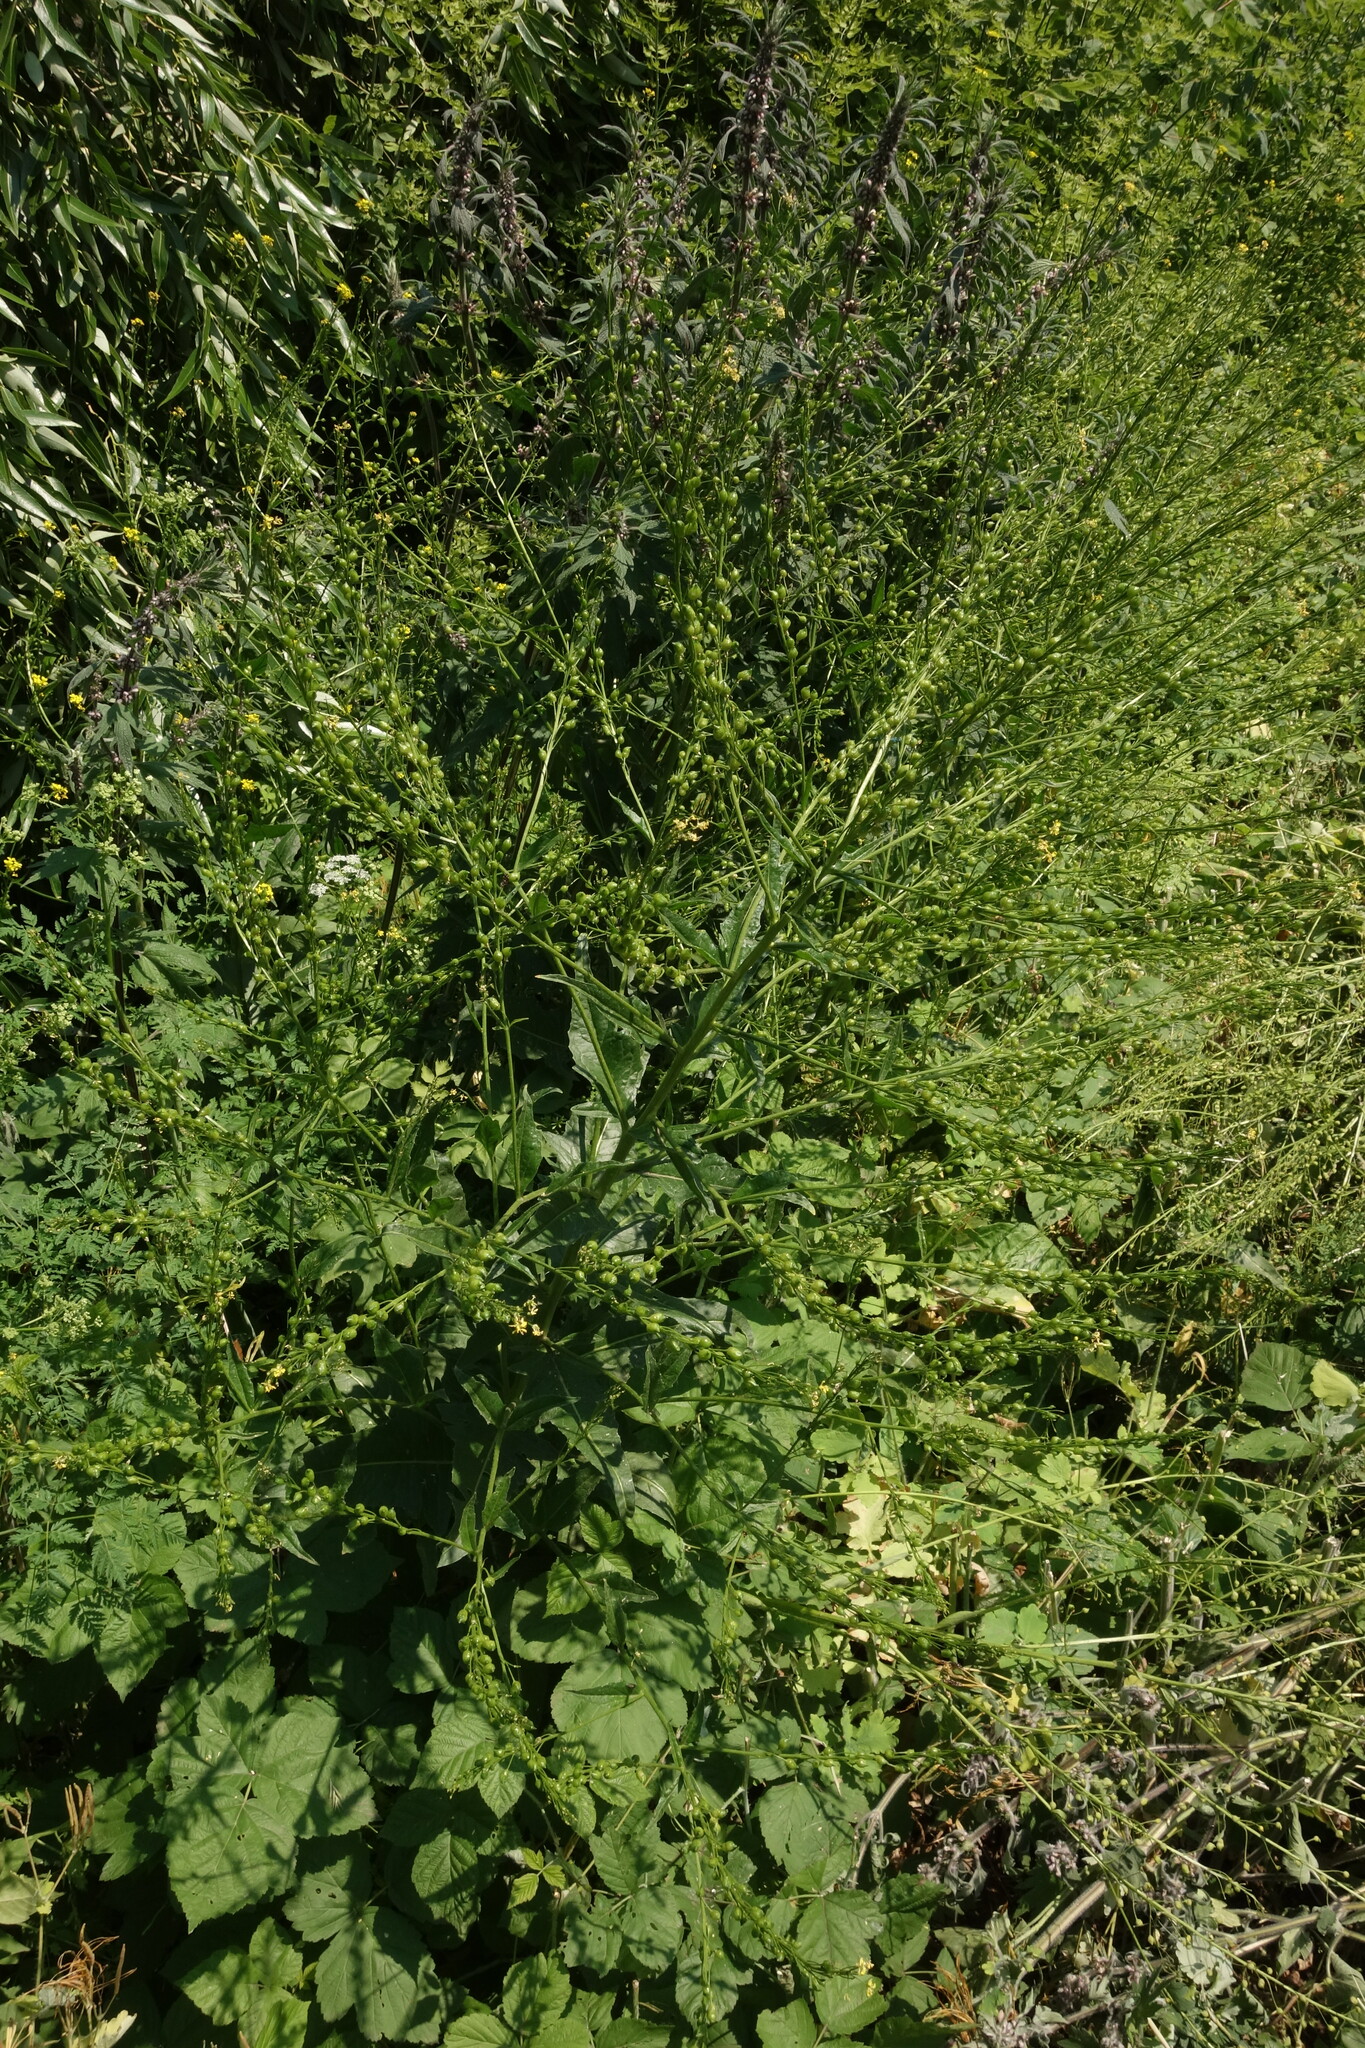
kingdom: Plantae
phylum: Tracheophyta
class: Magnoliopsida
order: Brassicales
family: Brassicaceae
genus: Bunias
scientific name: Bunias orientalis
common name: Warty-cabbage
